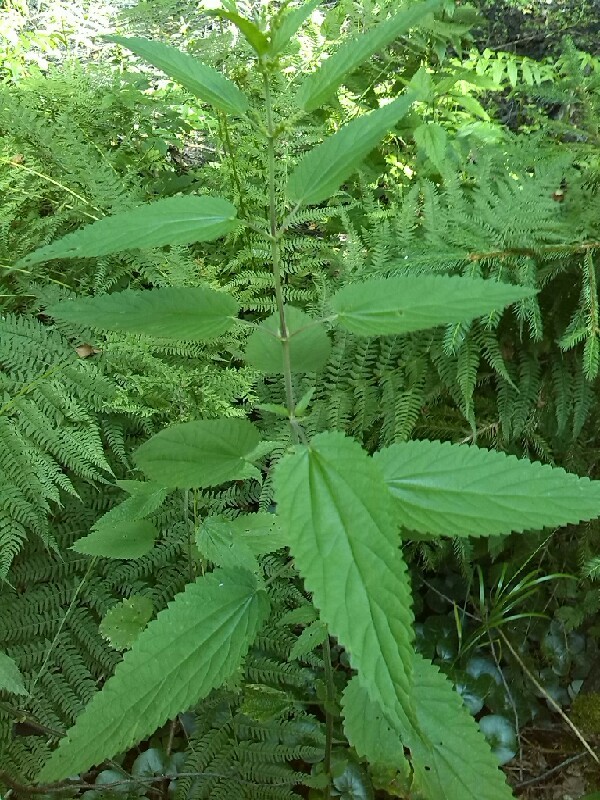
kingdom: Plantae
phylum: Tracheophyta
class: Magnoliopsida
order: Rosales
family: Urticaceae
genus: Urtica
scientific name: Urtica dioica
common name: Common nettle
